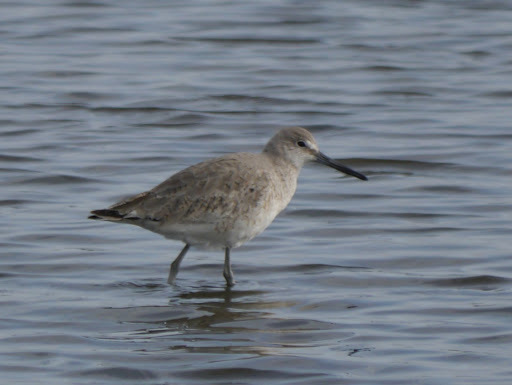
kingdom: Animalia
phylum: Chordata
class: Aves
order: Charadriiformes
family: Scolopacidae
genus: Tringa
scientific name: Tringa semipalmata
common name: Willet
